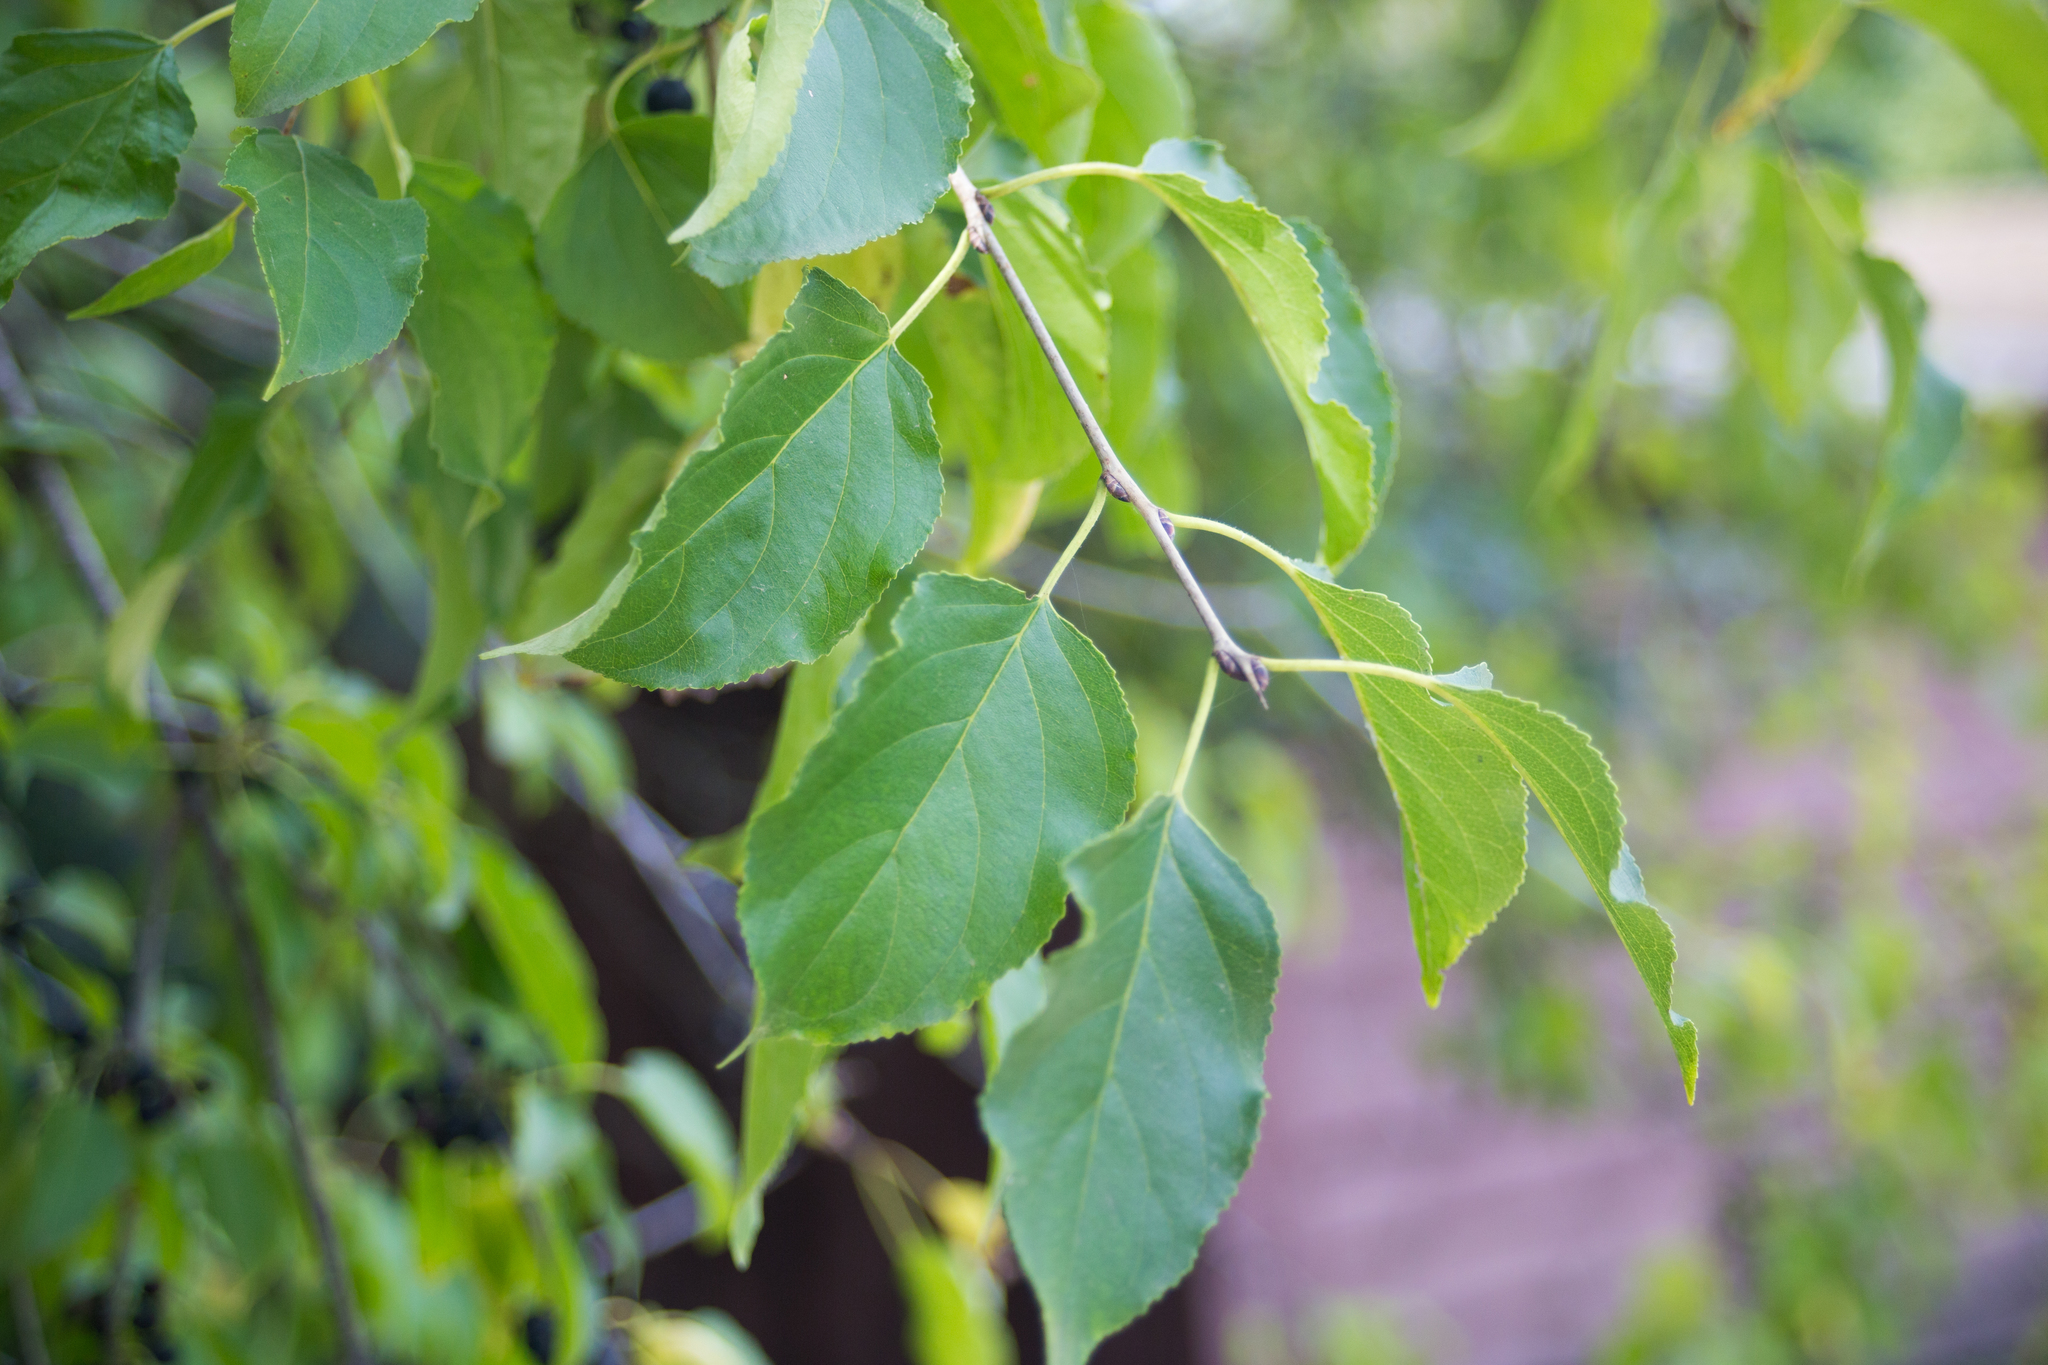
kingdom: Plantae
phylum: Tracheophyta
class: Magnoliopsida
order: Rosales
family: Rhamnaceae
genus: Rhamnus
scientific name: Rhamnus cathartica
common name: Common buckthorn
